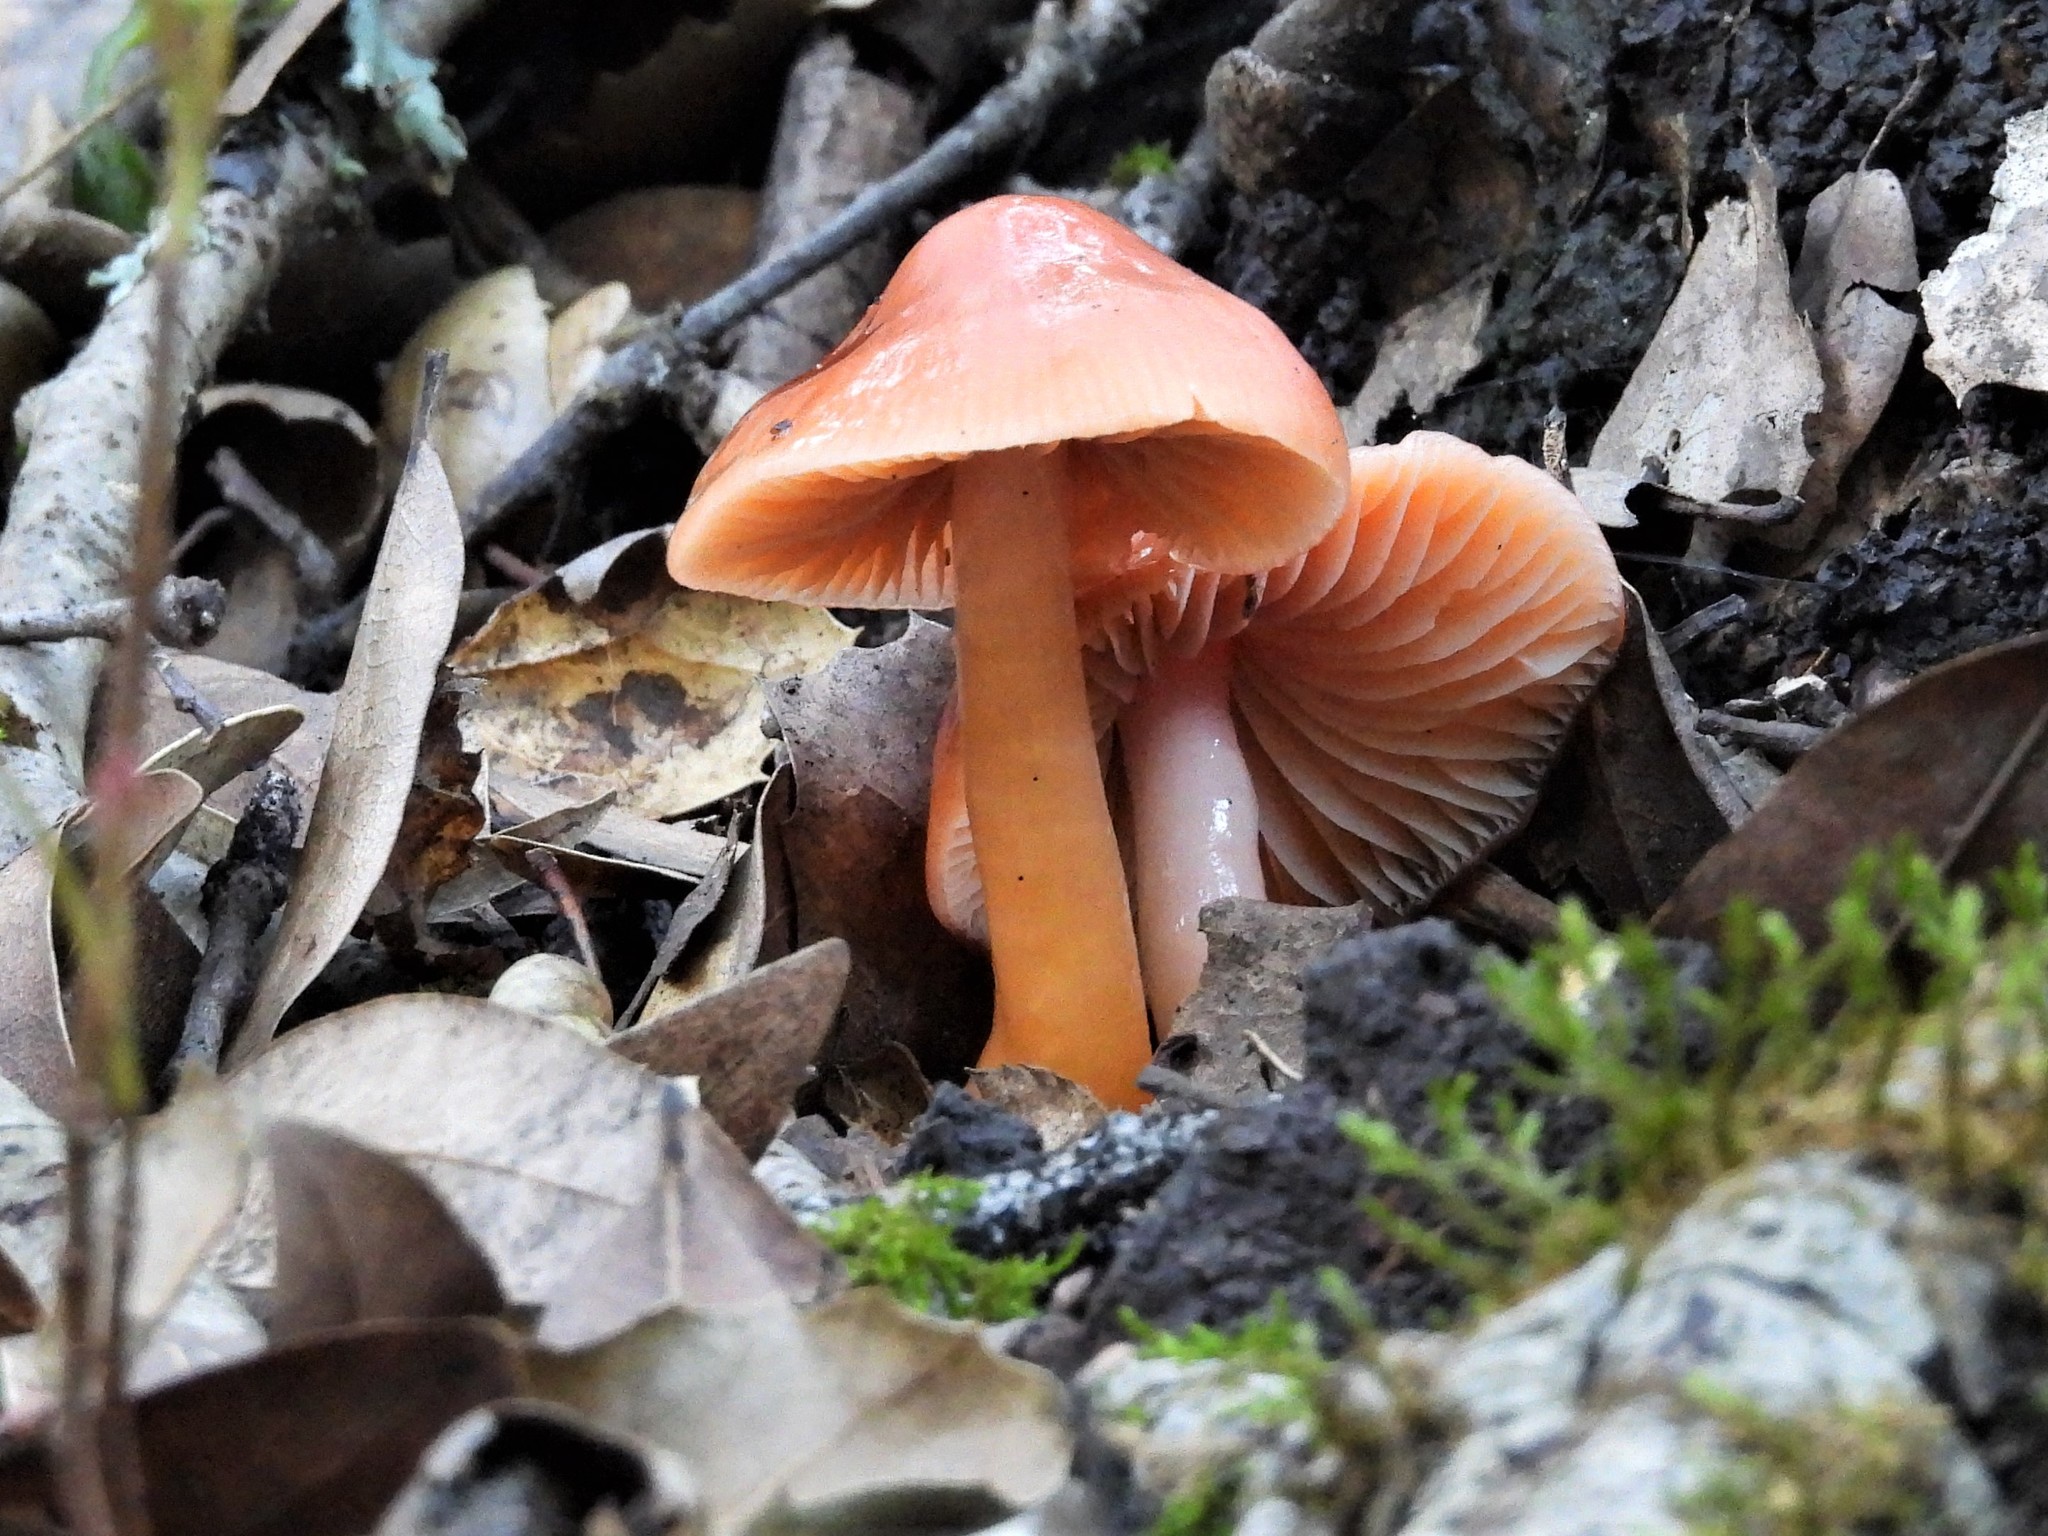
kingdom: Fungi
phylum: Basidiomycota
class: Agaricomycetes
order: Agaricales
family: Hygrophoraceae
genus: Gliophorus
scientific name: Gliophorus psittacinus
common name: Parrot wax-cap
